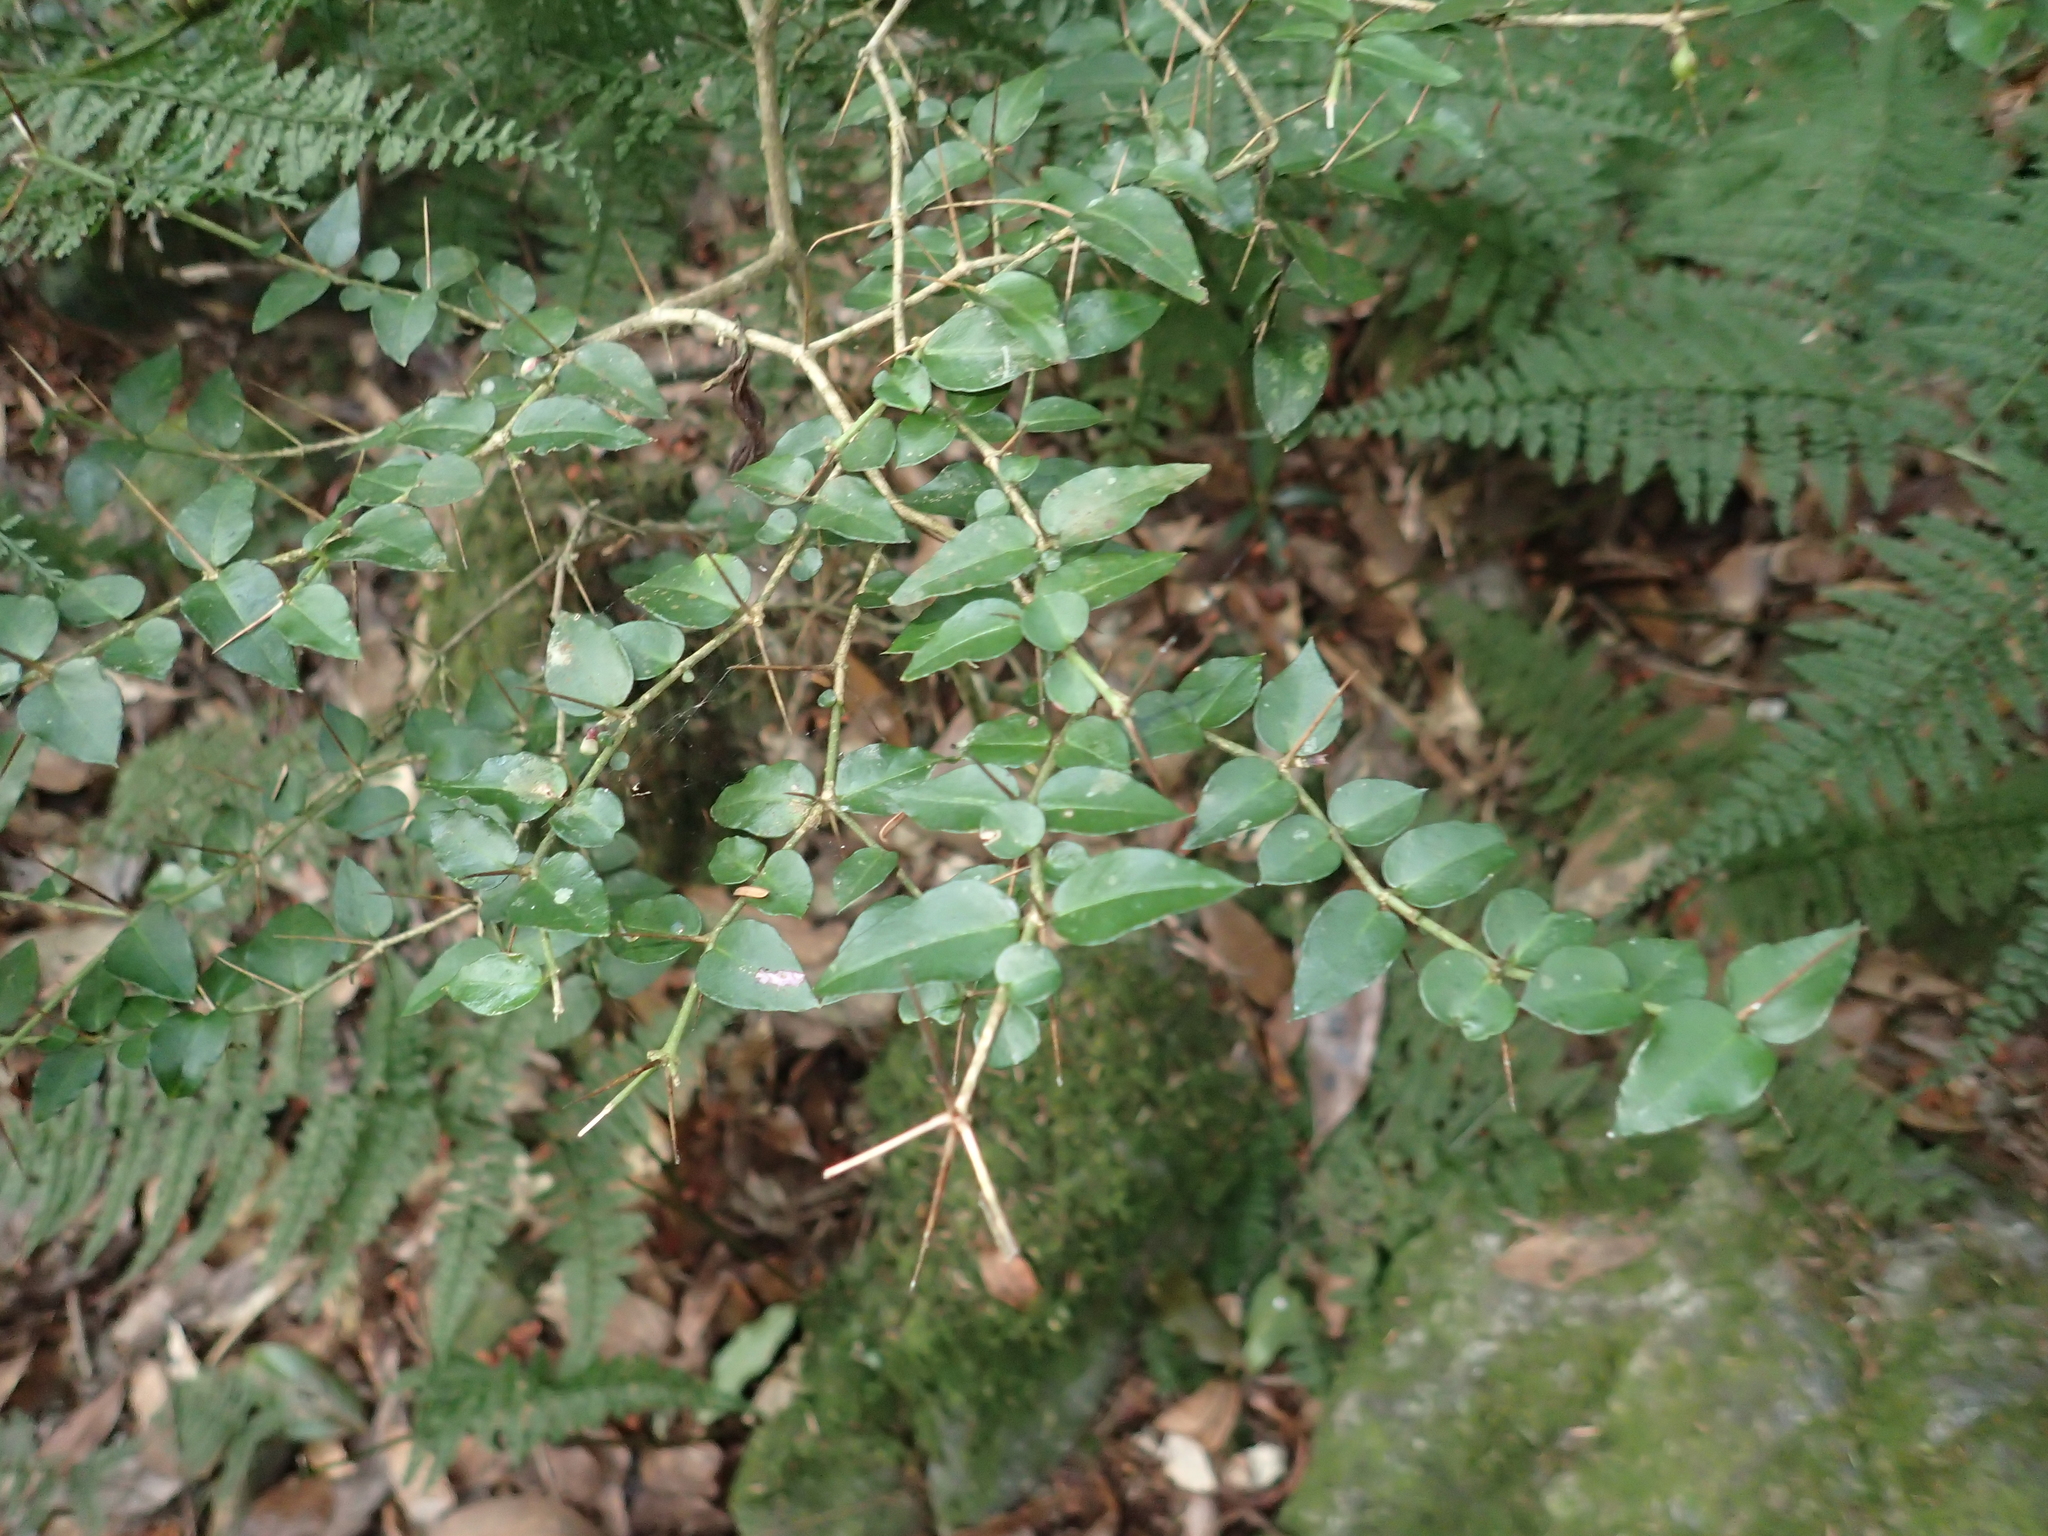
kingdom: Plantae
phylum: Tracheophyta
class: Magnoliopsida
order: Gentianales
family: Rubiaceae
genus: Damnacanthus
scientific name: Damnacanthus indicus
